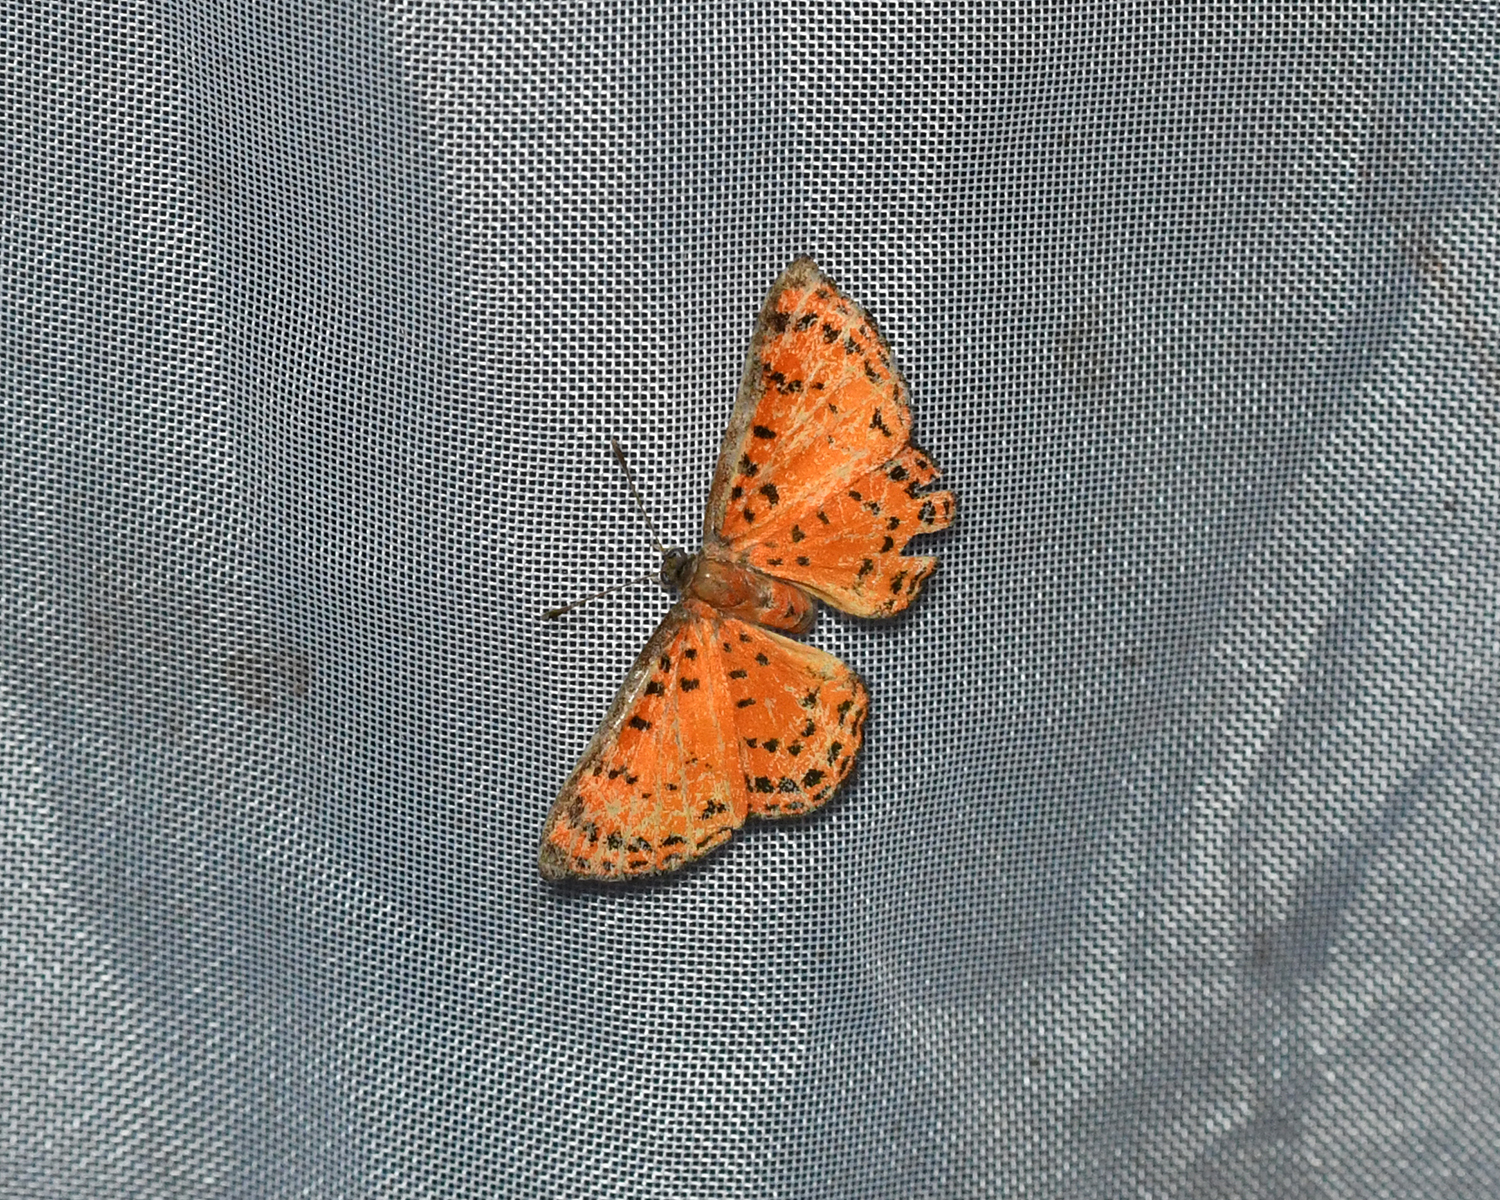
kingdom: Animalia
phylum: Arthropoda
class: Insecta
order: Lepidoptera
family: Lycaenidae
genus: Pachythone
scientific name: Pachythone lateritia
